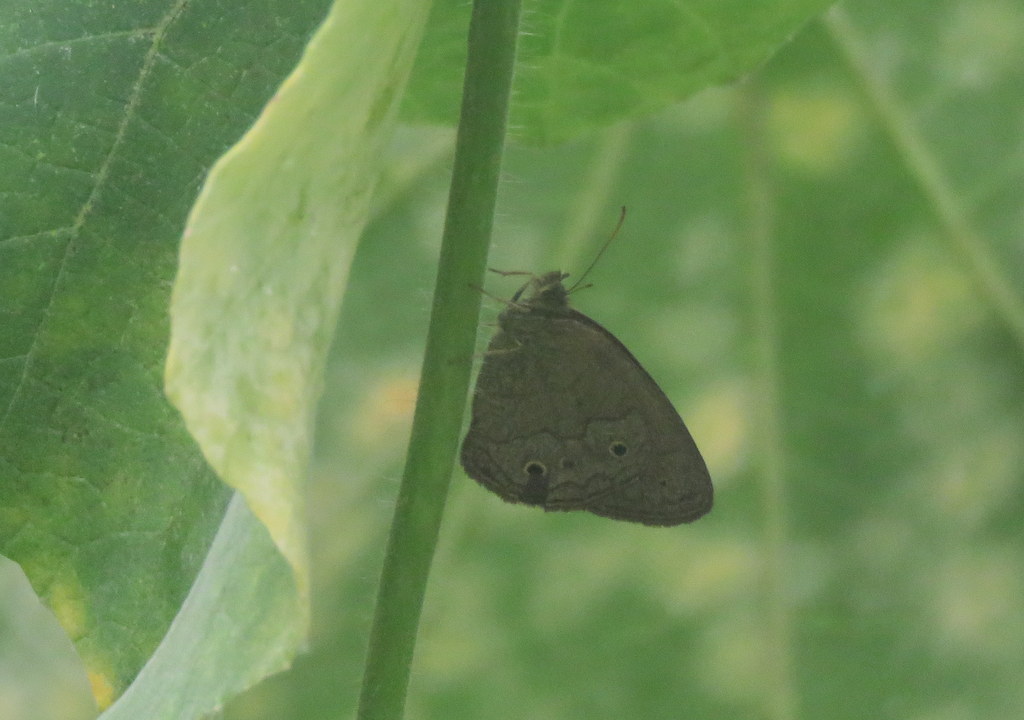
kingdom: Animalia
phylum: Arthropoda
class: Insecta
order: Lepidoptera
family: Nymphalidae
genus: Yphthimoides
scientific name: Yphthimoides celmis
